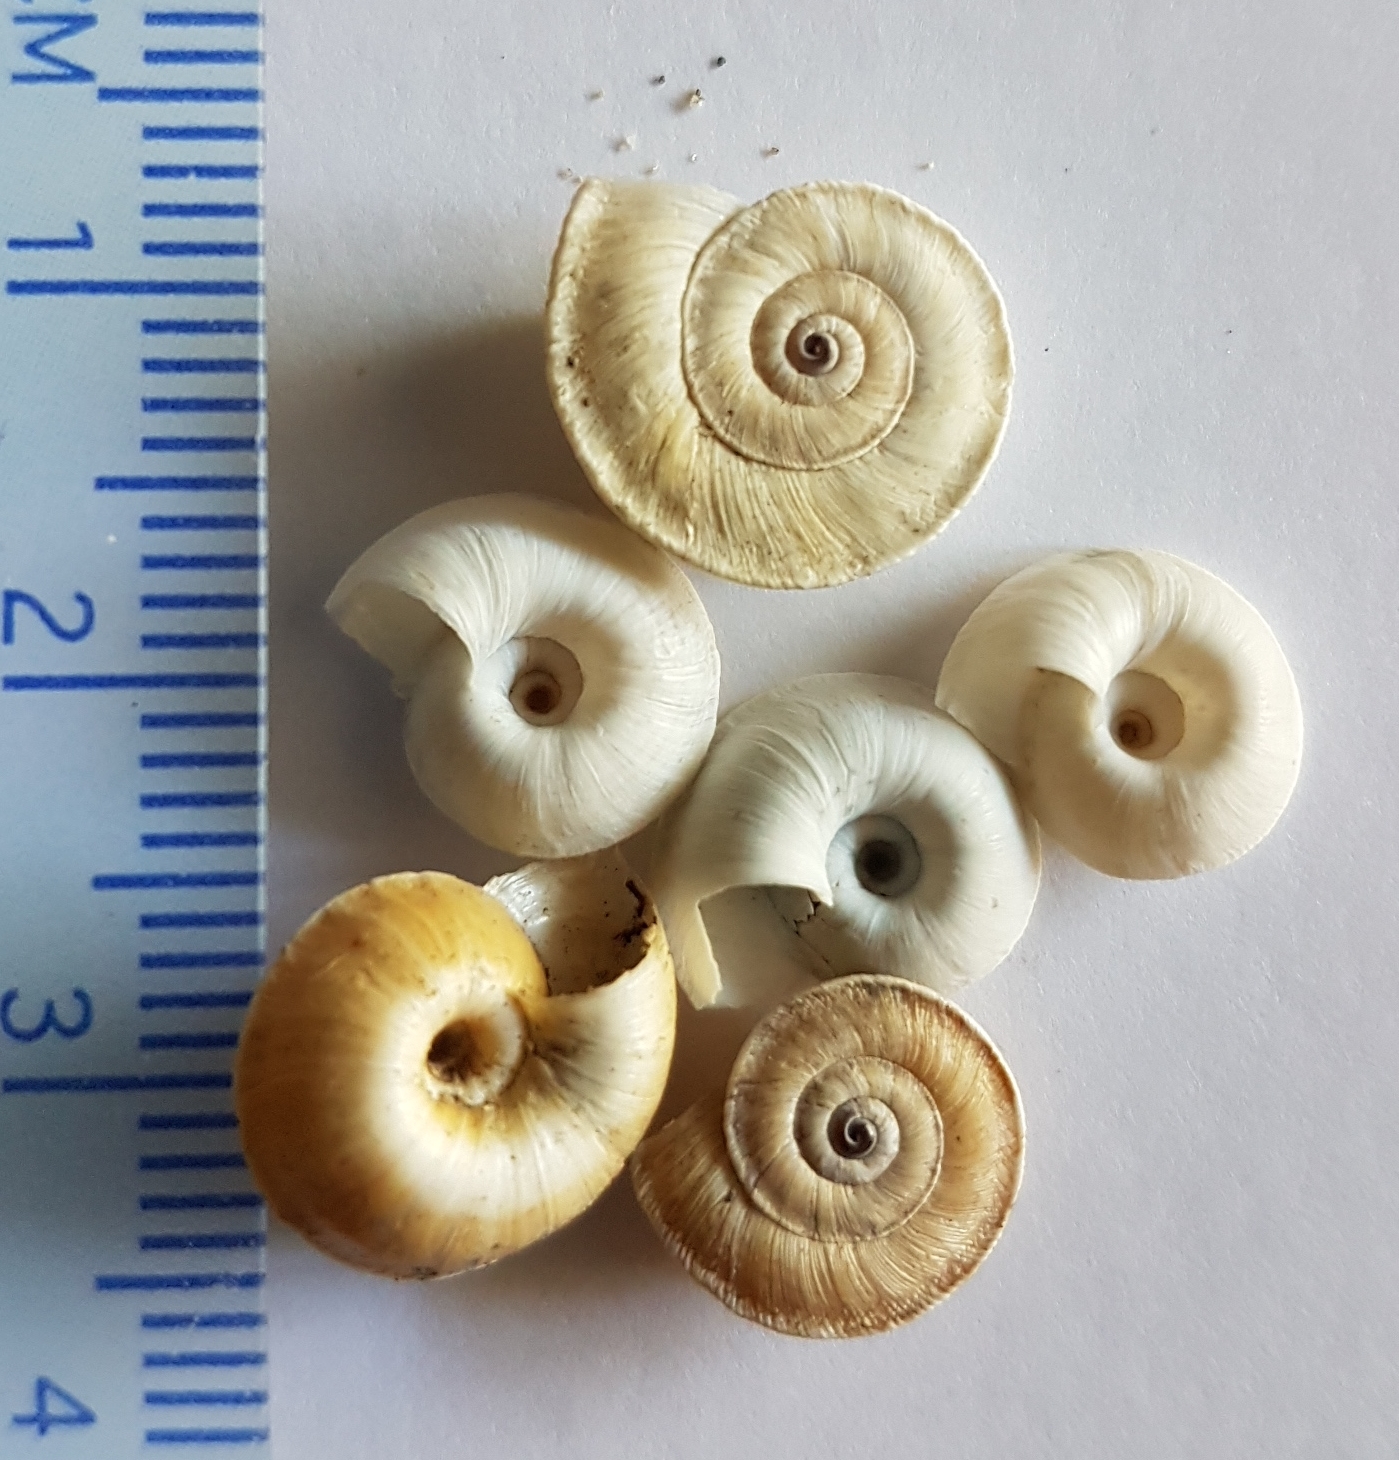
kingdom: Animalia
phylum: Mollusca
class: Gastropoda
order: Stylommatophora
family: Geomitridae
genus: Xerosecta
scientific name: Xerosecta explanata
